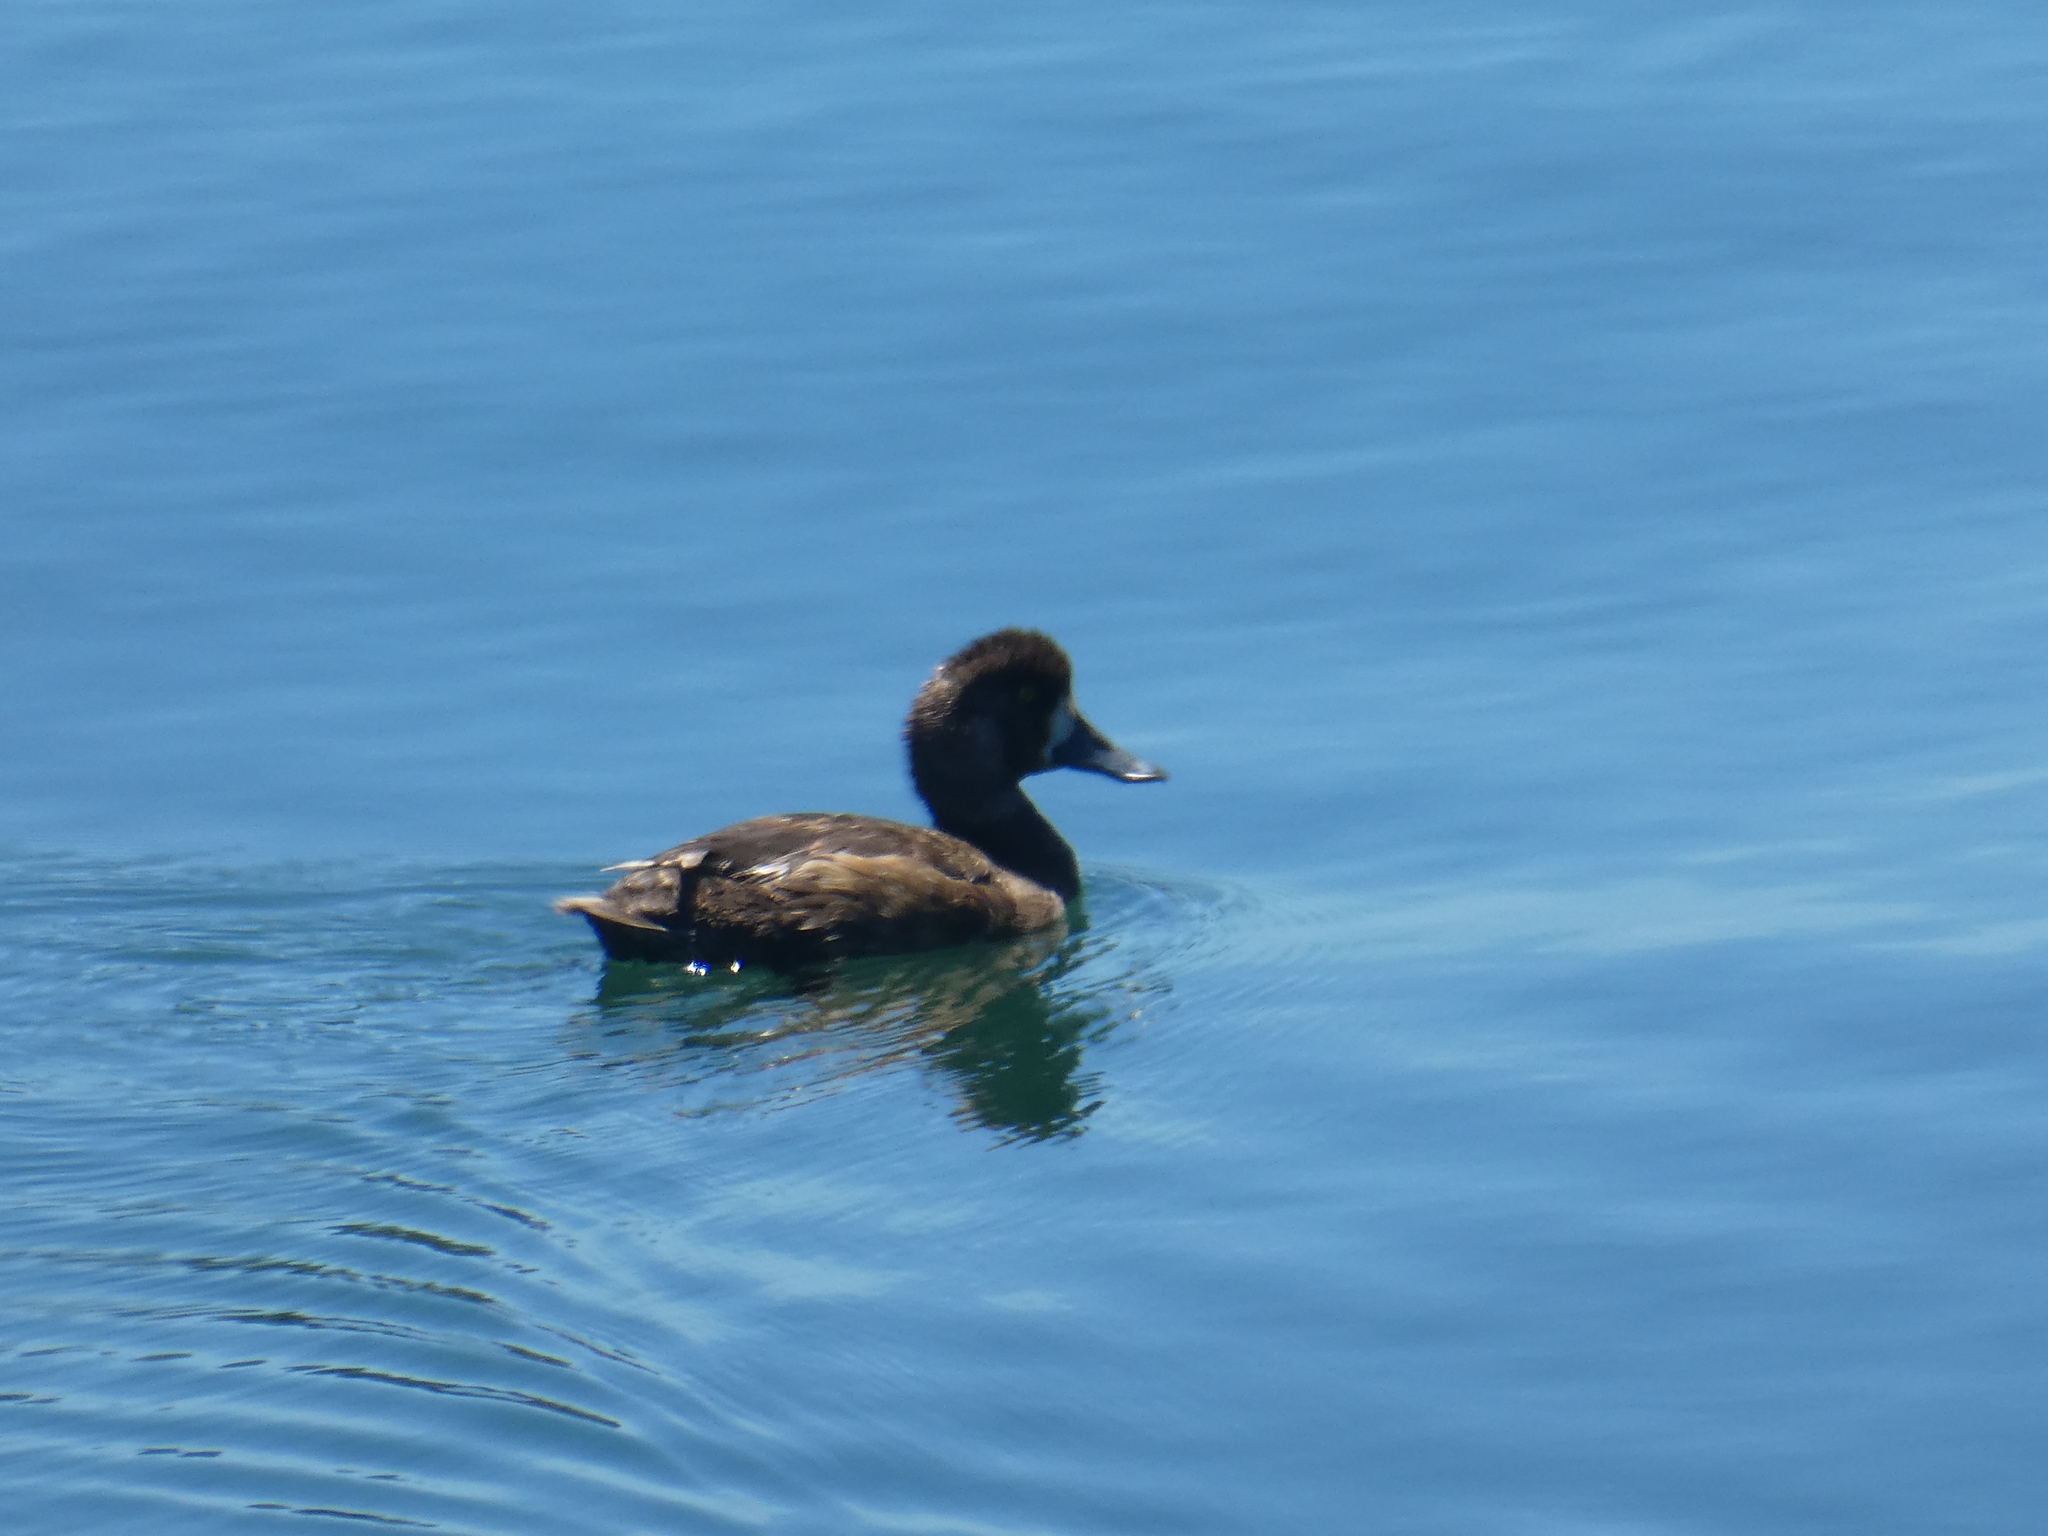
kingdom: Animalia
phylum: Chordata
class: Aves
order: Anseriformes
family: Anatidae
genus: Aythya
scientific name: Aythya collaris
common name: Ring-necked duck
